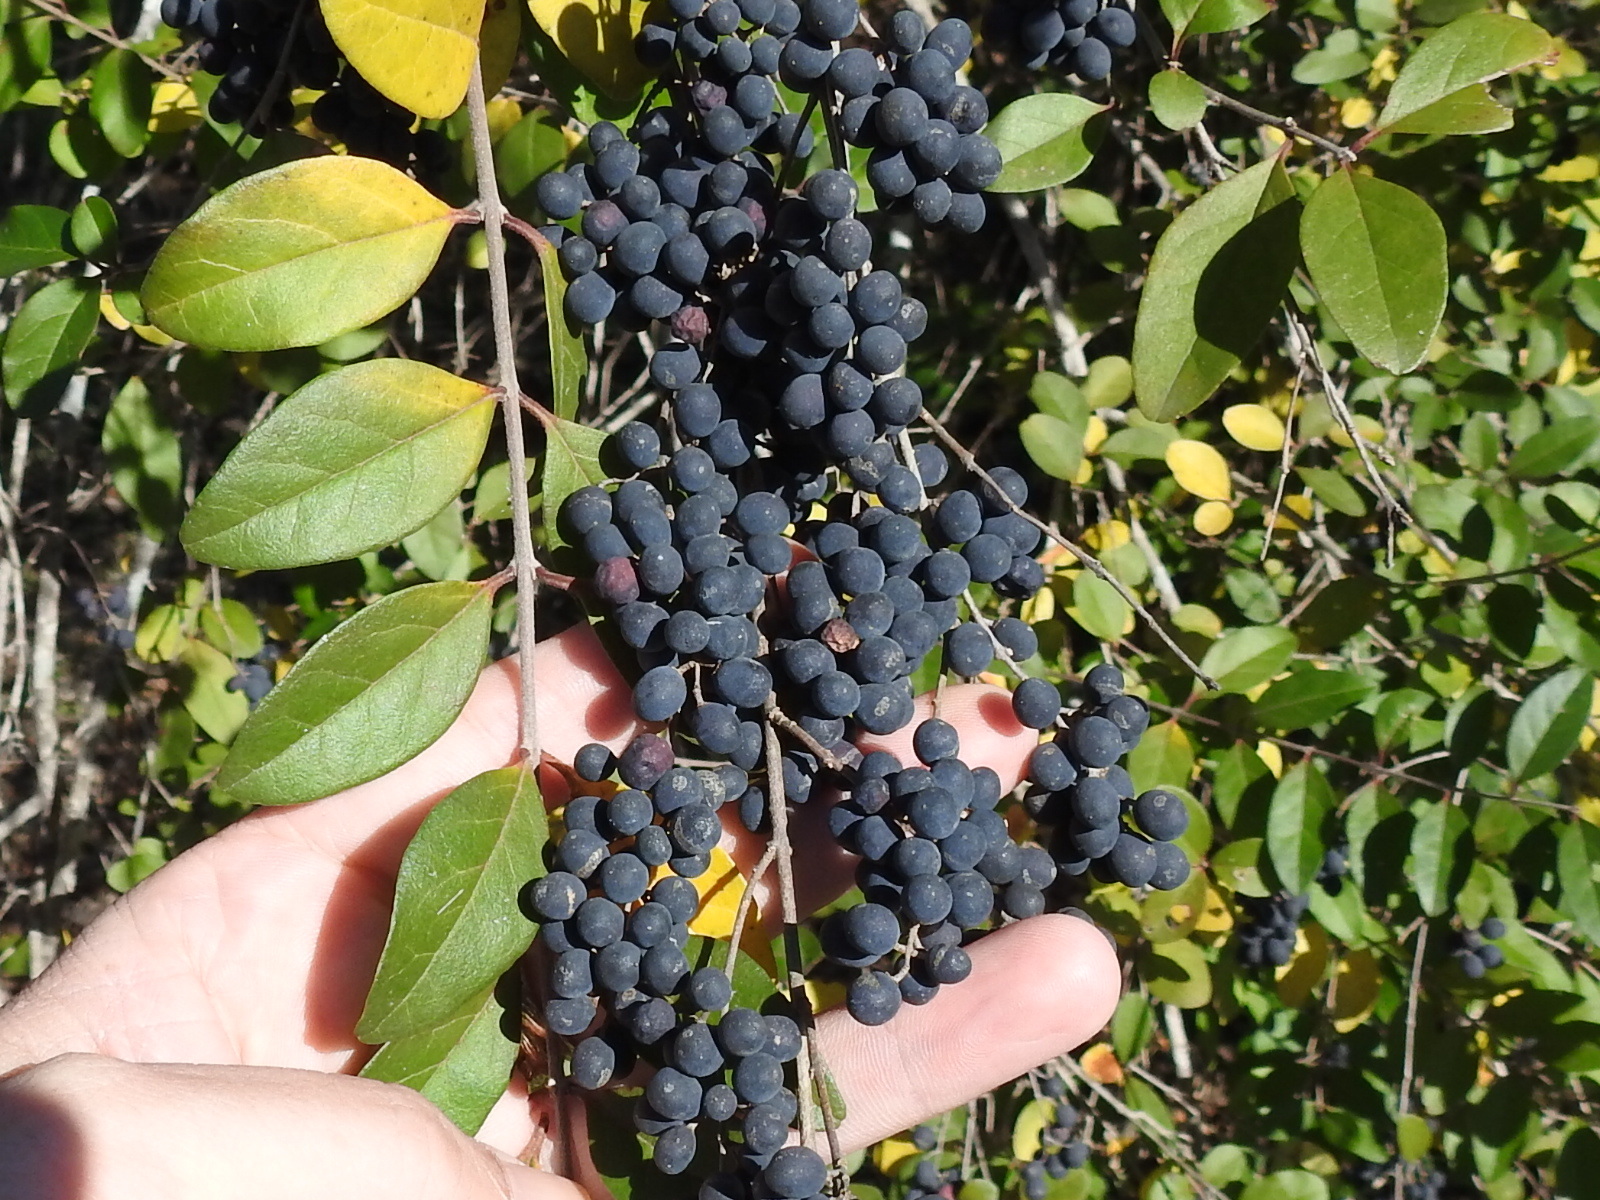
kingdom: Plantae
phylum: Tracheophyta
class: Magnoliopsida
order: Lamiales
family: Oleaceae
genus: Ligustrum
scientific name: Ligustrum sinense
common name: Chinese privet
